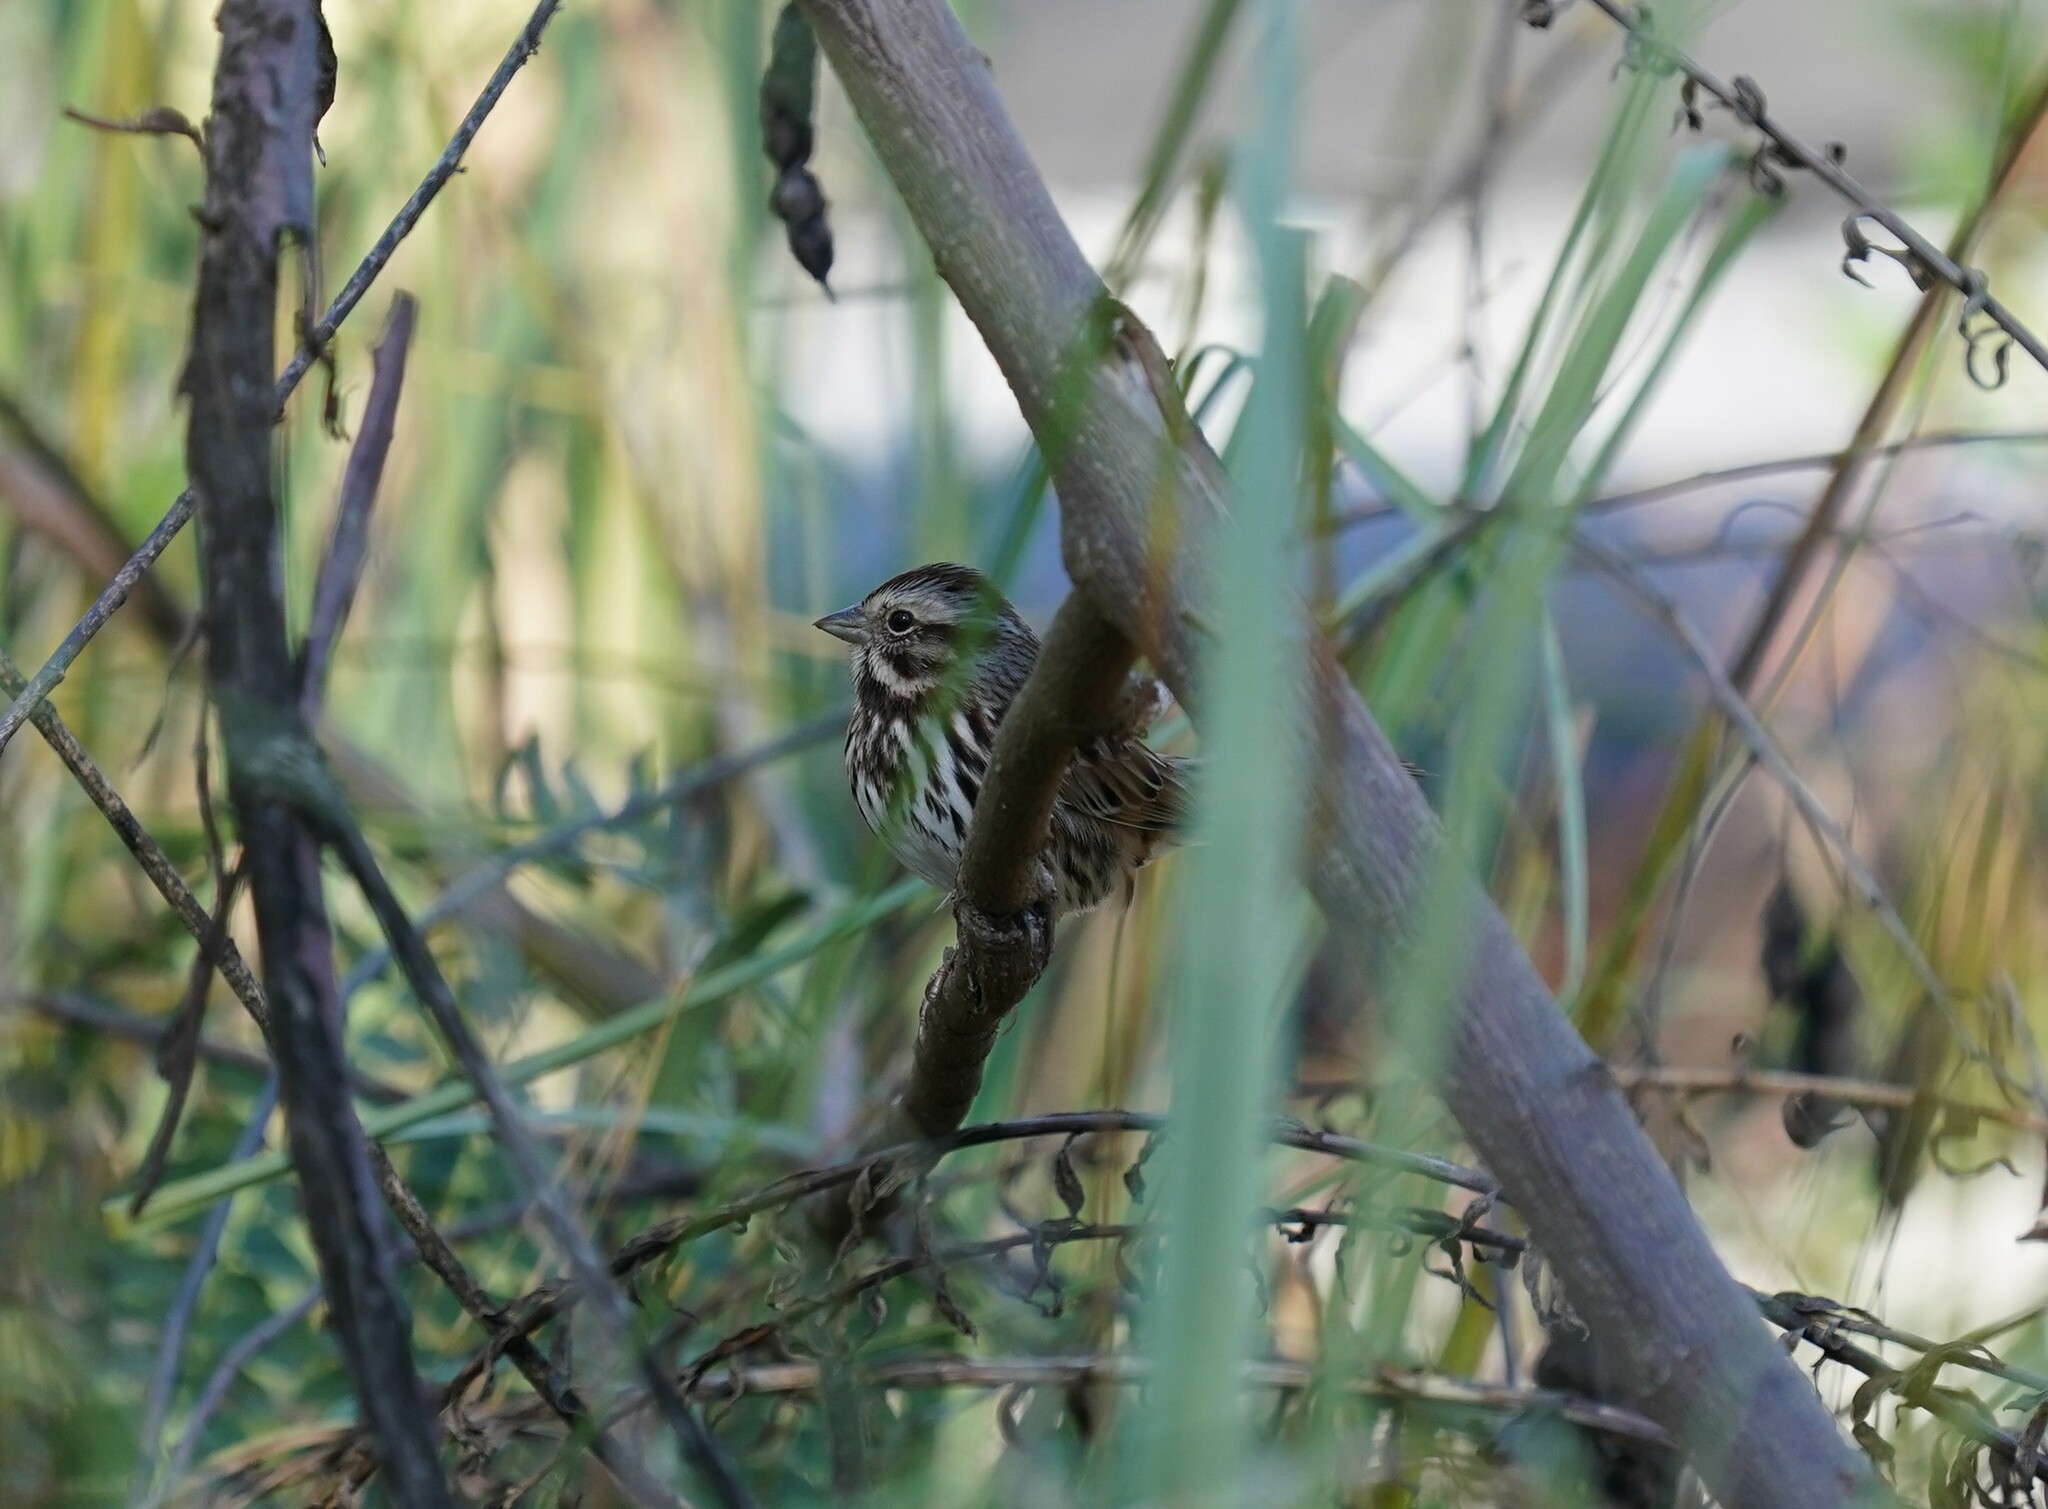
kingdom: Animalia
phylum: Chordata
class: Aves
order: Passeriformes
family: Passerellidae
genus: Melospiza
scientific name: Melospiza melodia
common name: Song sparrow
